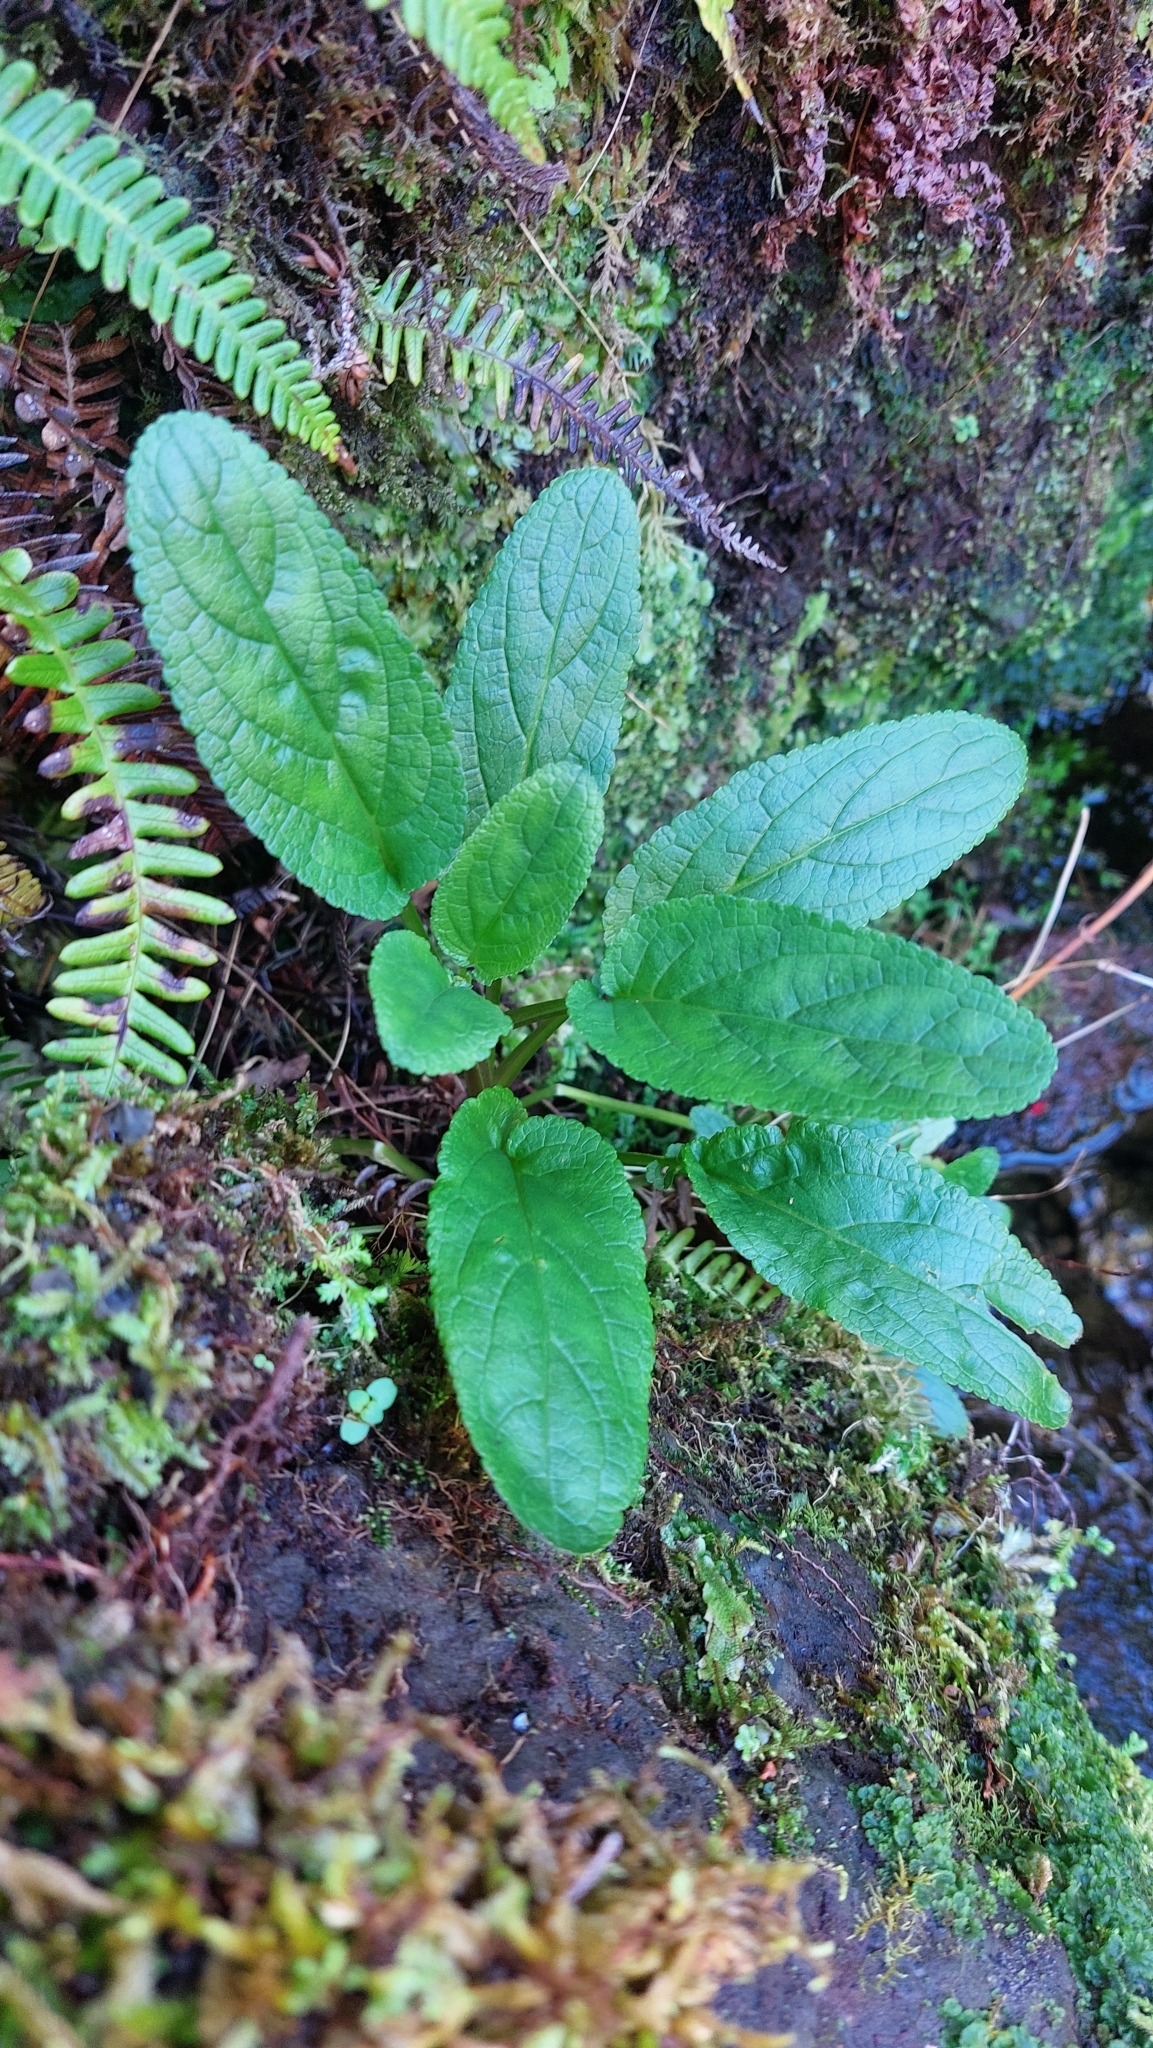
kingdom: Plantae
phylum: Tracheophyta
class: Magnoliopsida
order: Lamiales
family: Scrophulariaceae
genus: Scrophularia
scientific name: Scrophularia auriculata
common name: Water betony
